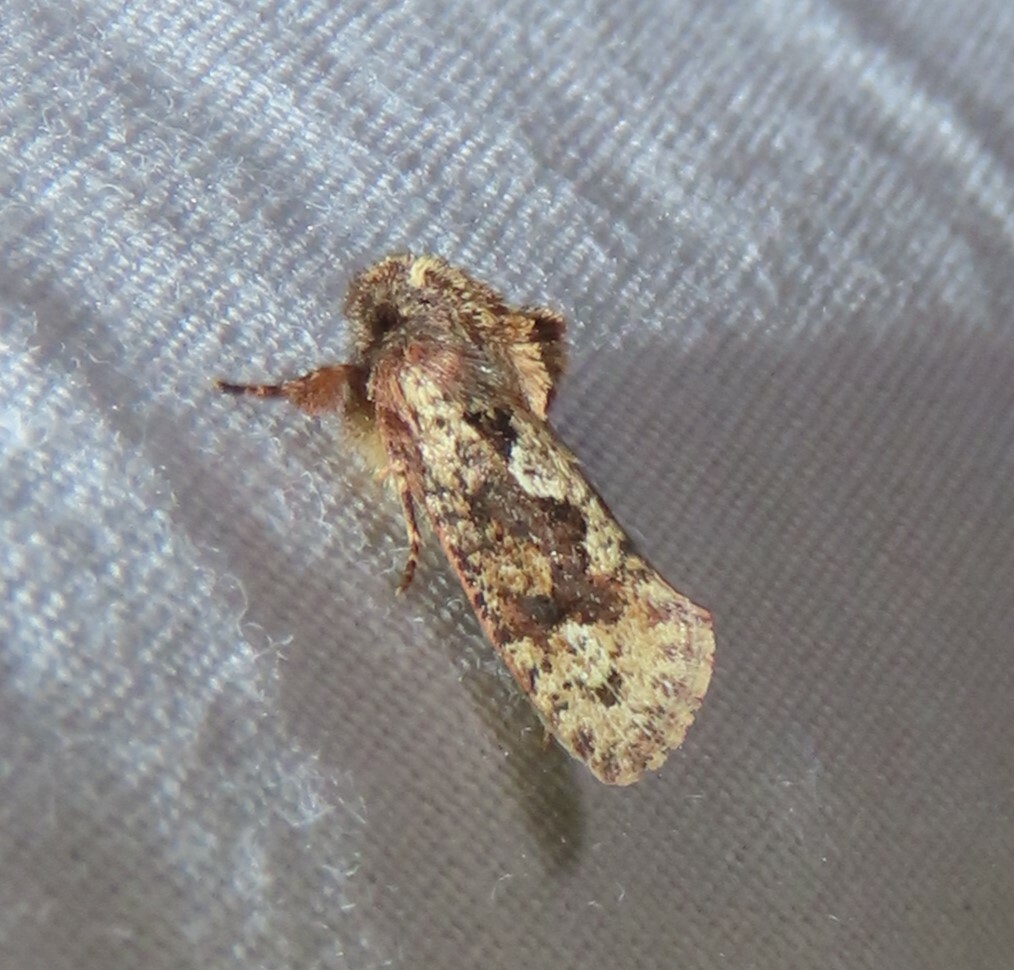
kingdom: Animalia
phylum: Arthropoda
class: Insecta
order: Lepidoptera
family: Tineidae
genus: Acrolophus
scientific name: Acrolophus walsinghami
